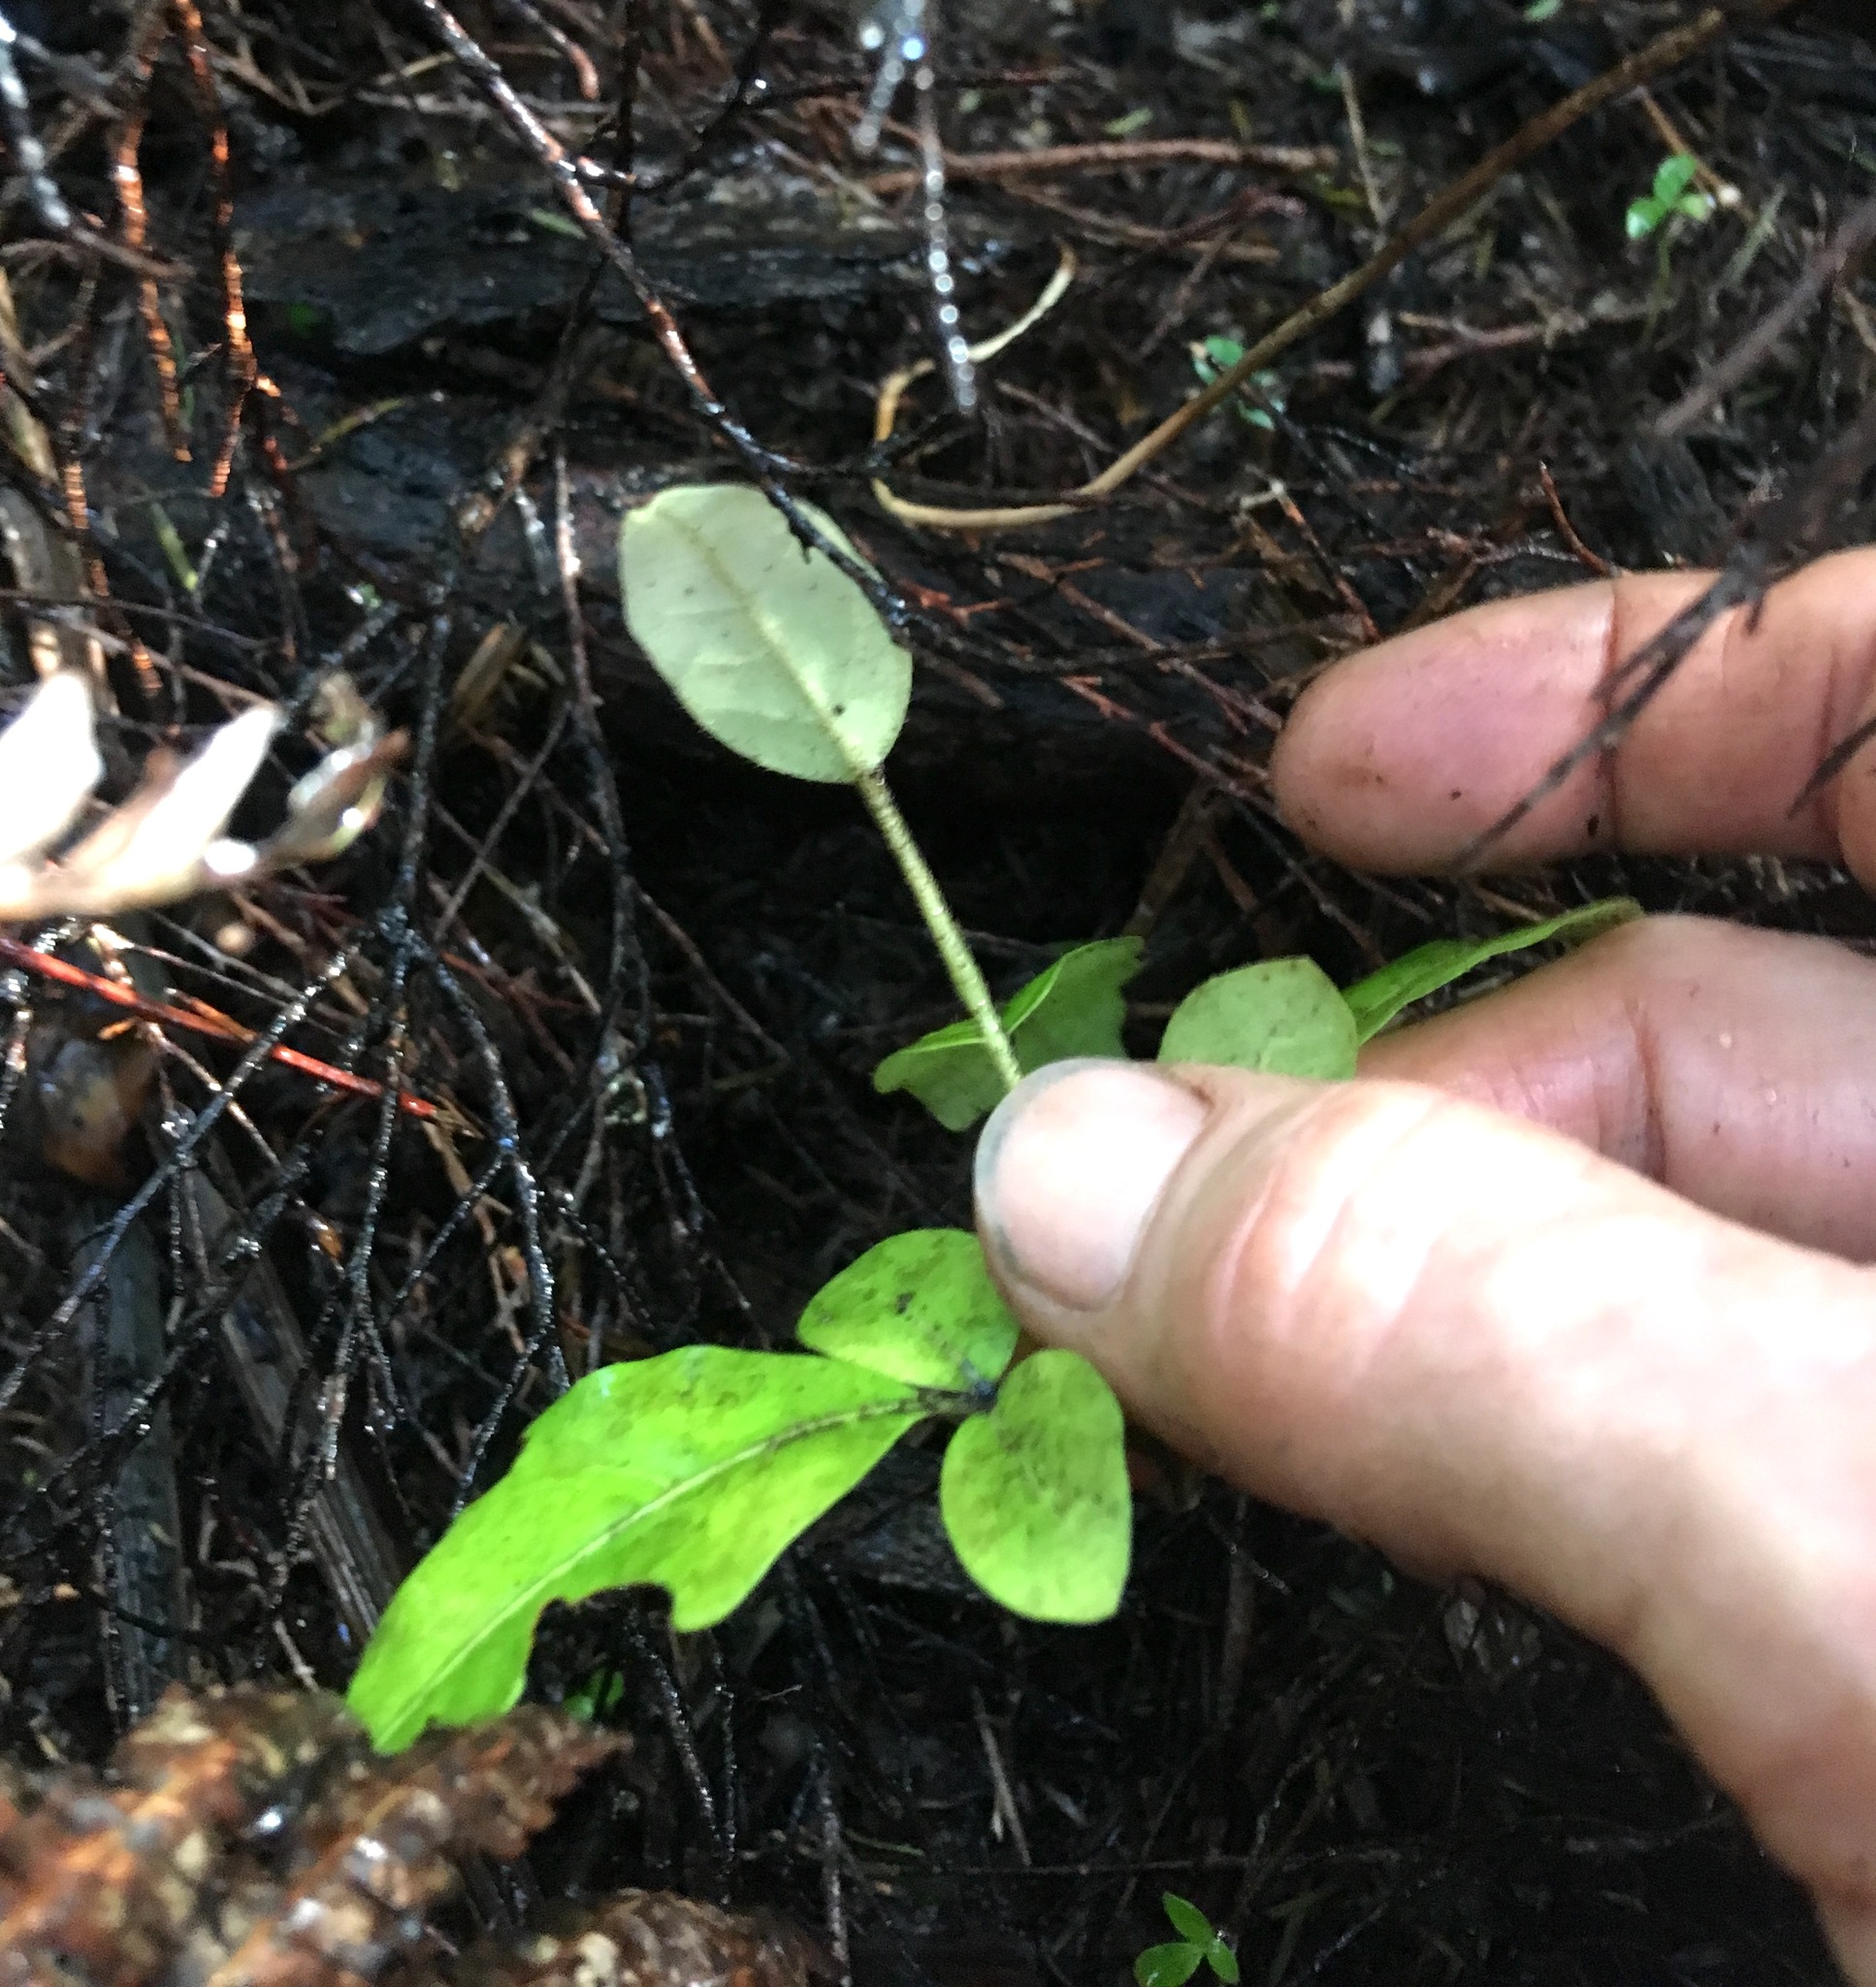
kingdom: Plantae
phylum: Tracheophyta
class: Magnoliopsida
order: Sapindales
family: Meliaceae
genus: Didymocheton
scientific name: Didymocheton spectabilis
